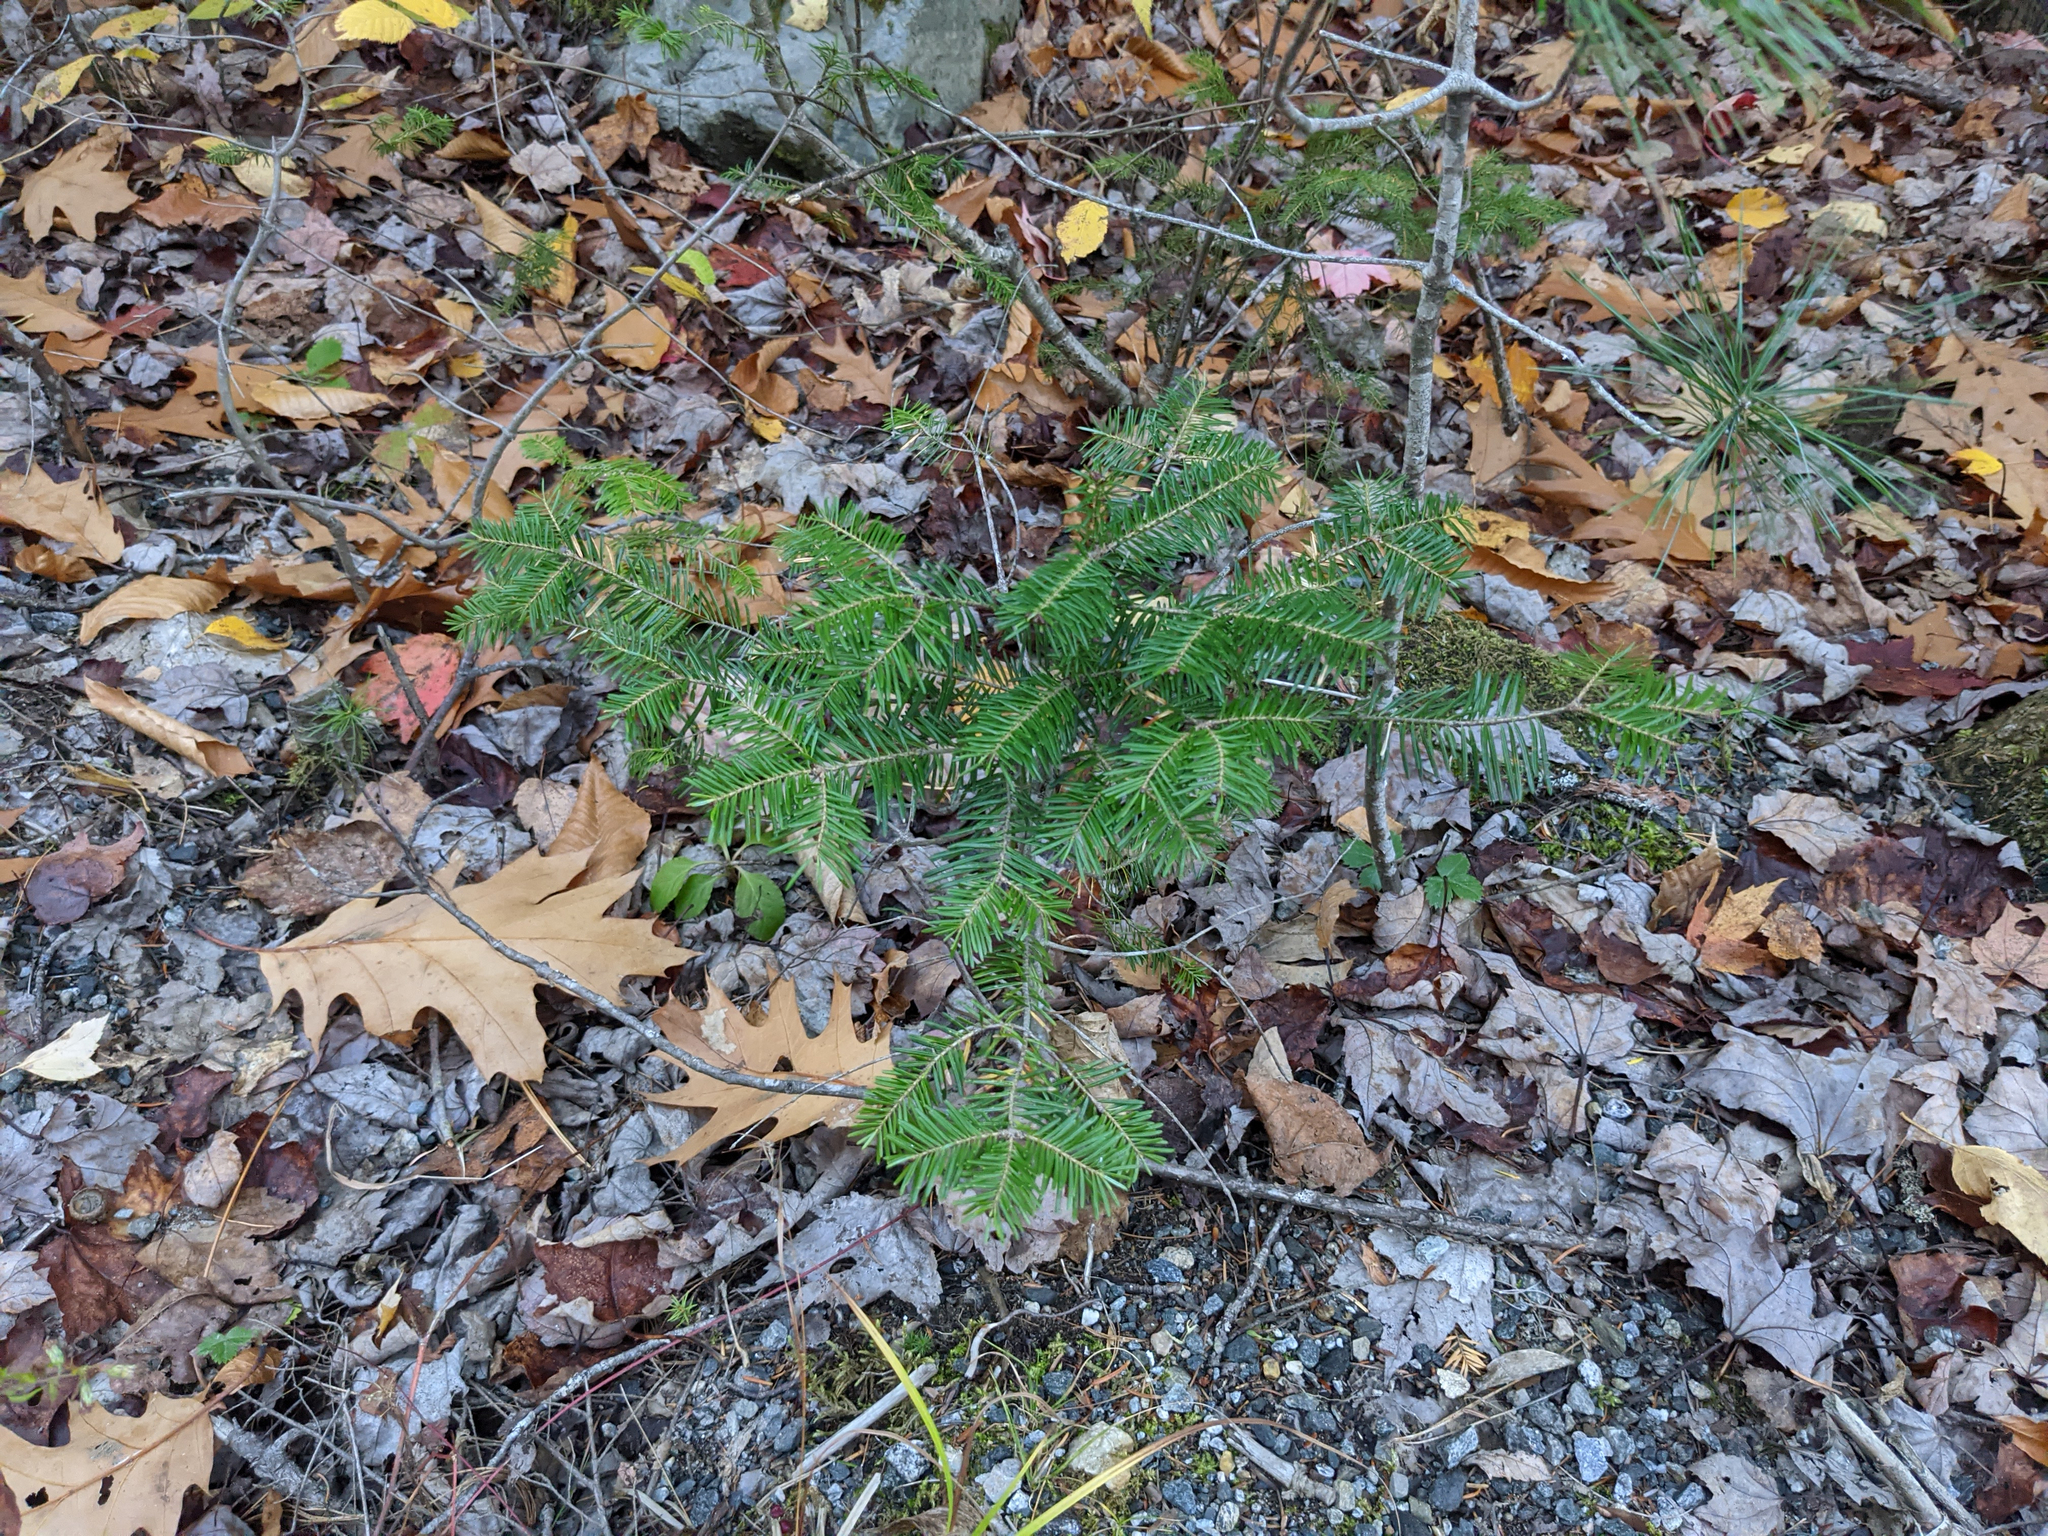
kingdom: Plantae
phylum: Tracheophyta
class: Pinopsida
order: Pinales
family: Pinaceae
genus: Abies
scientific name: Abies balsamea
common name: Balsam fir
